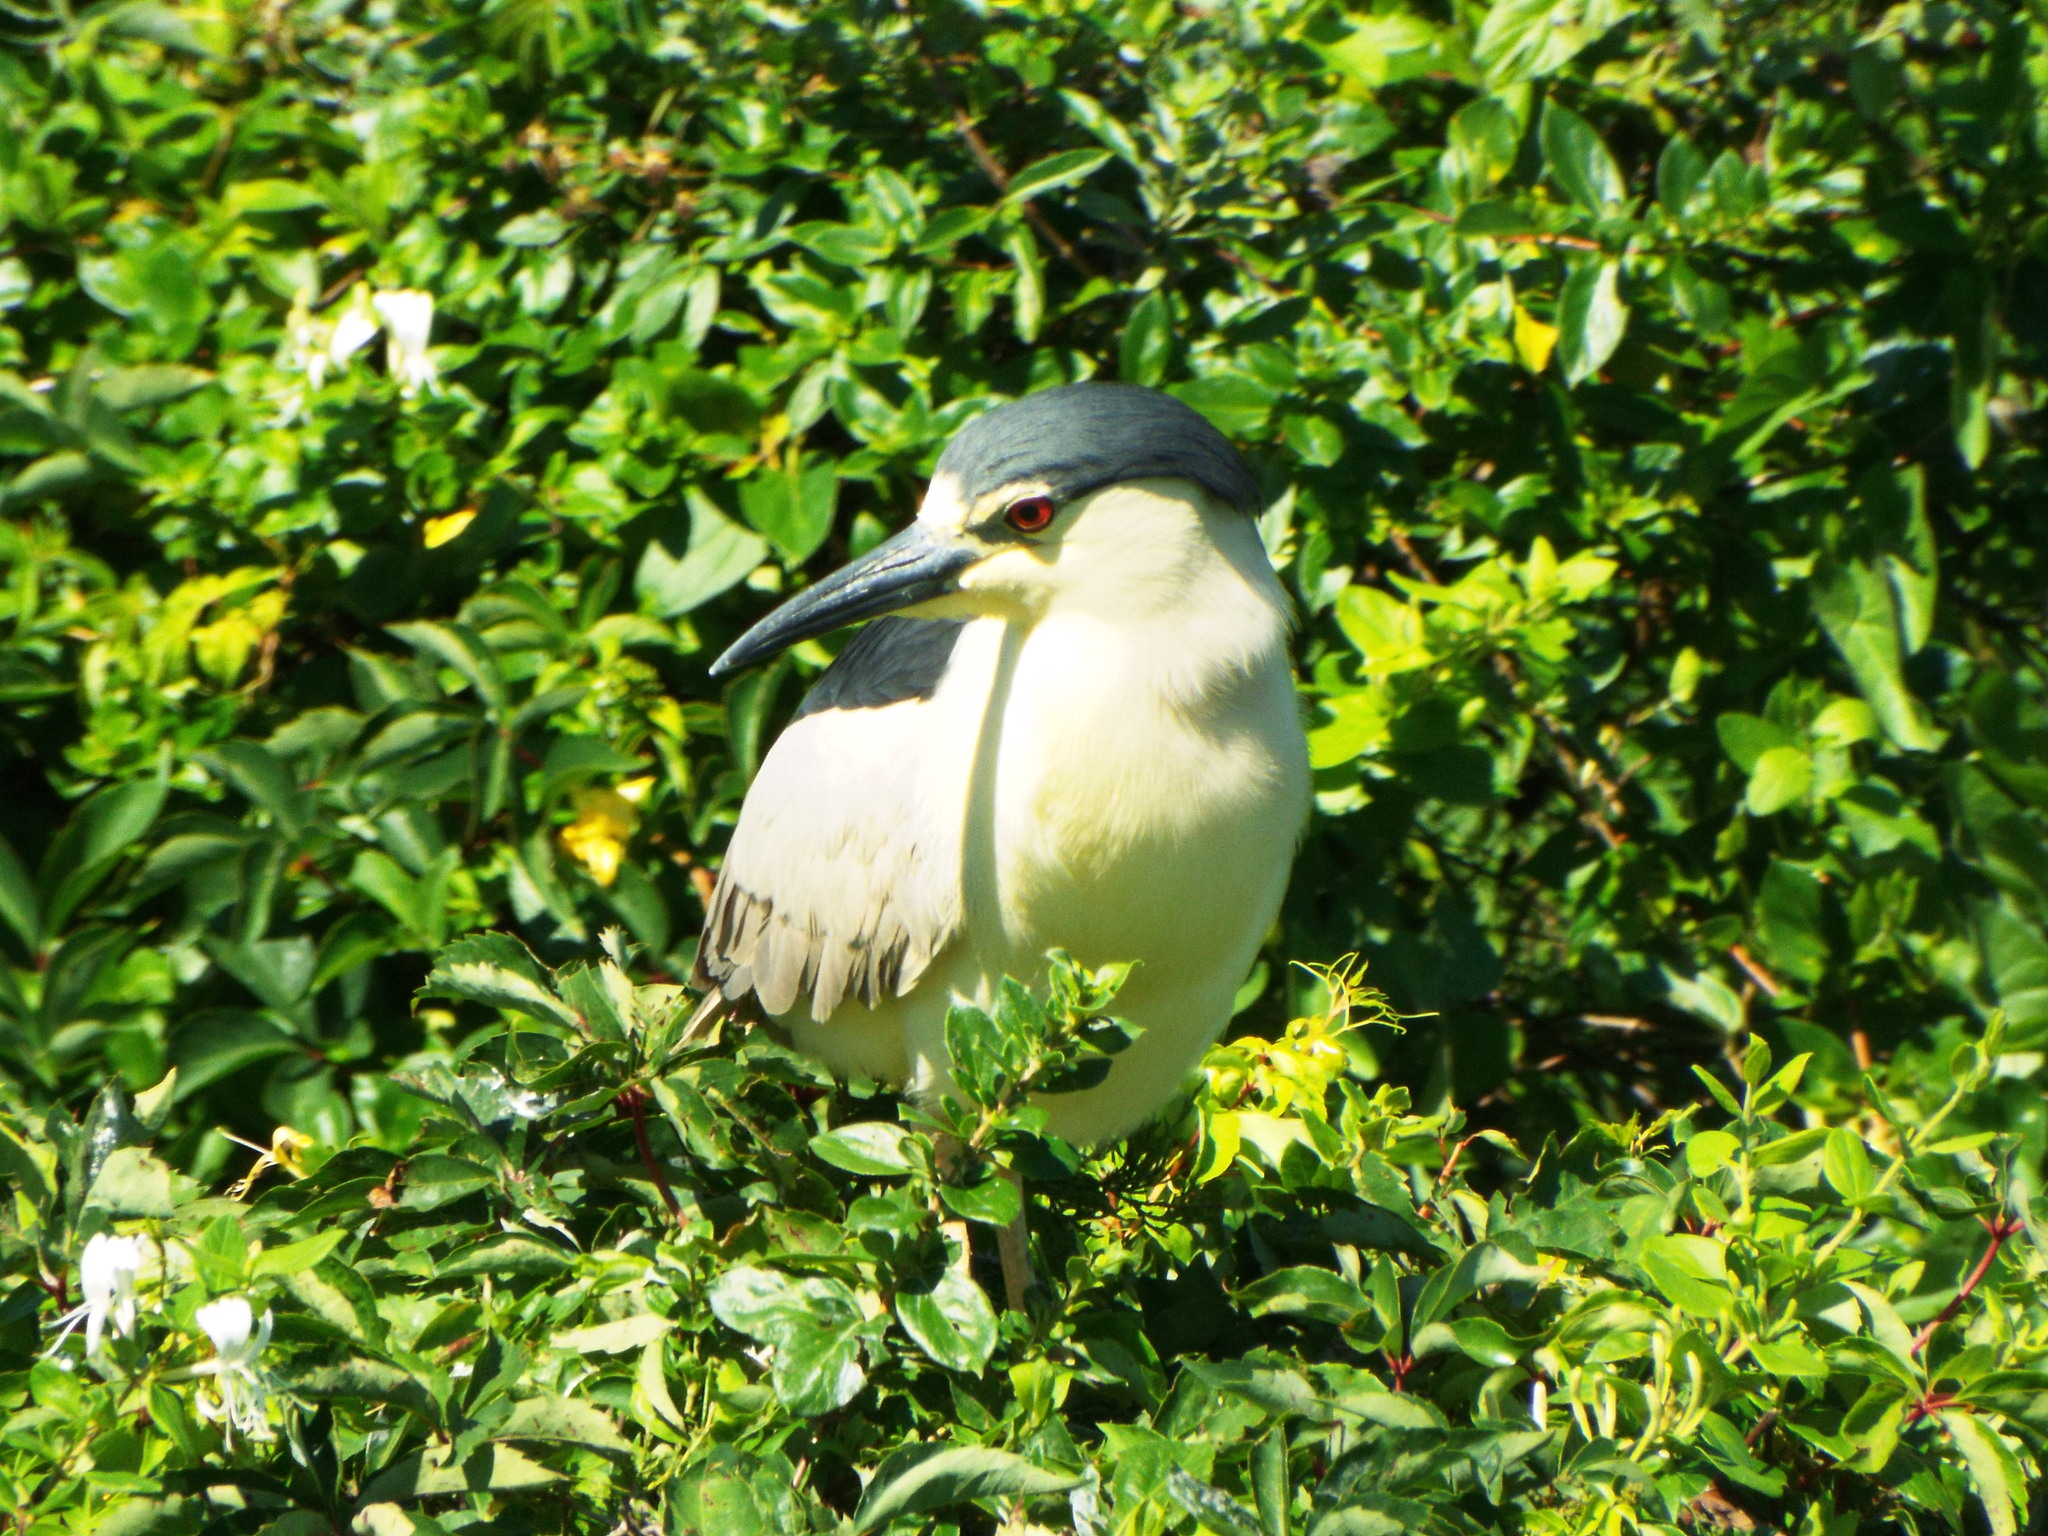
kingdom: Animalia
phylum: Chordata
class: Aves
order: Pelecaniformes
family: Ardeidae
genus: Nycticorax
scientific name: Nycticorax nycticorax
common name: Black-crowned night heron
